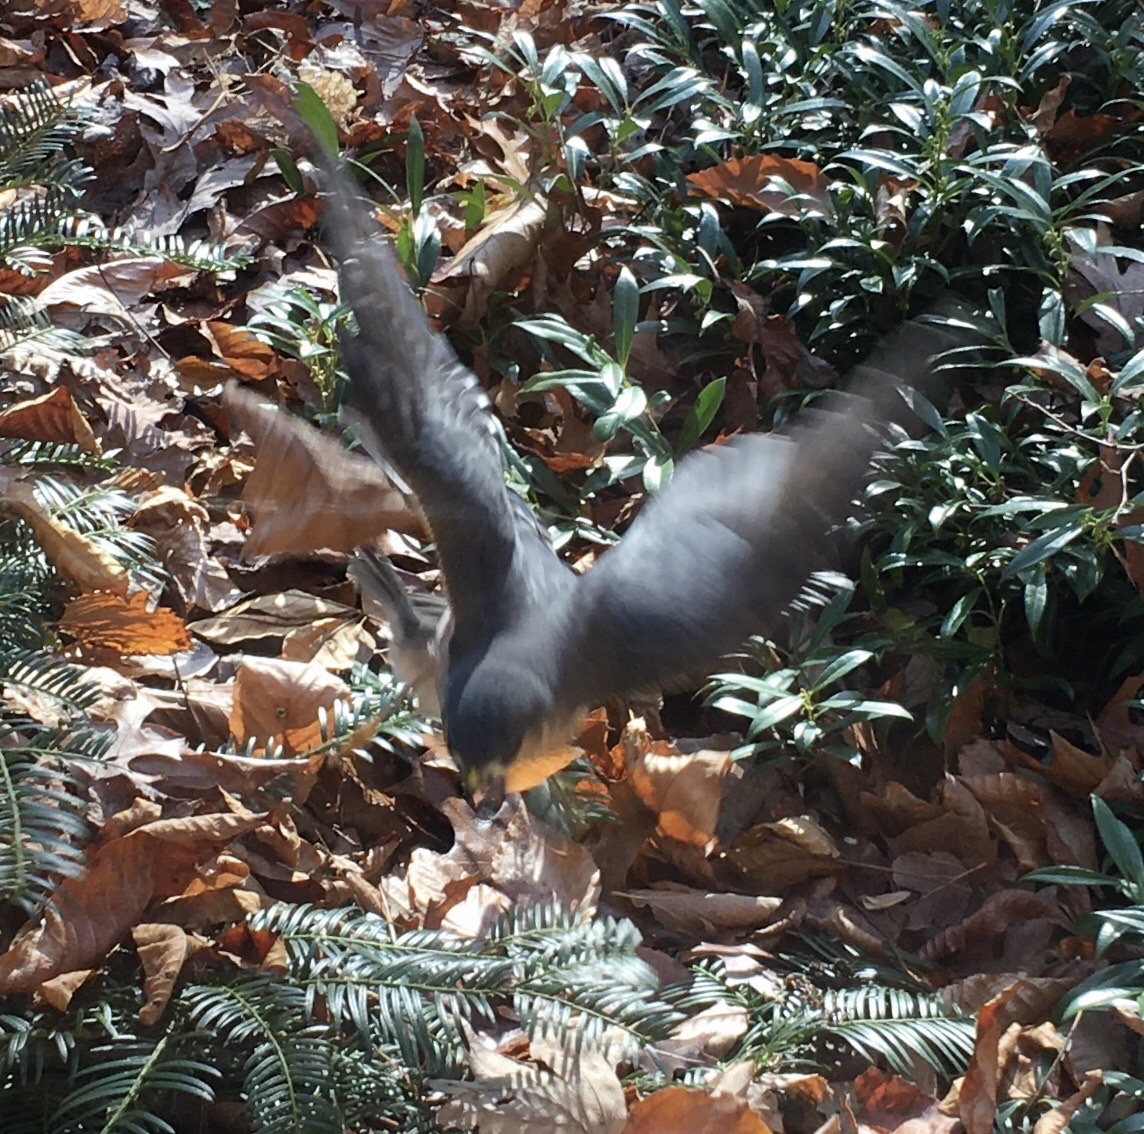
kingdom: Animalia
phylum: Chordata
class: Aves
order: Accipitriformes
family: Accipitridae
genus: Accipiter
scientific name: Accipiter striatus
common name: Sharp-shinned hawk
